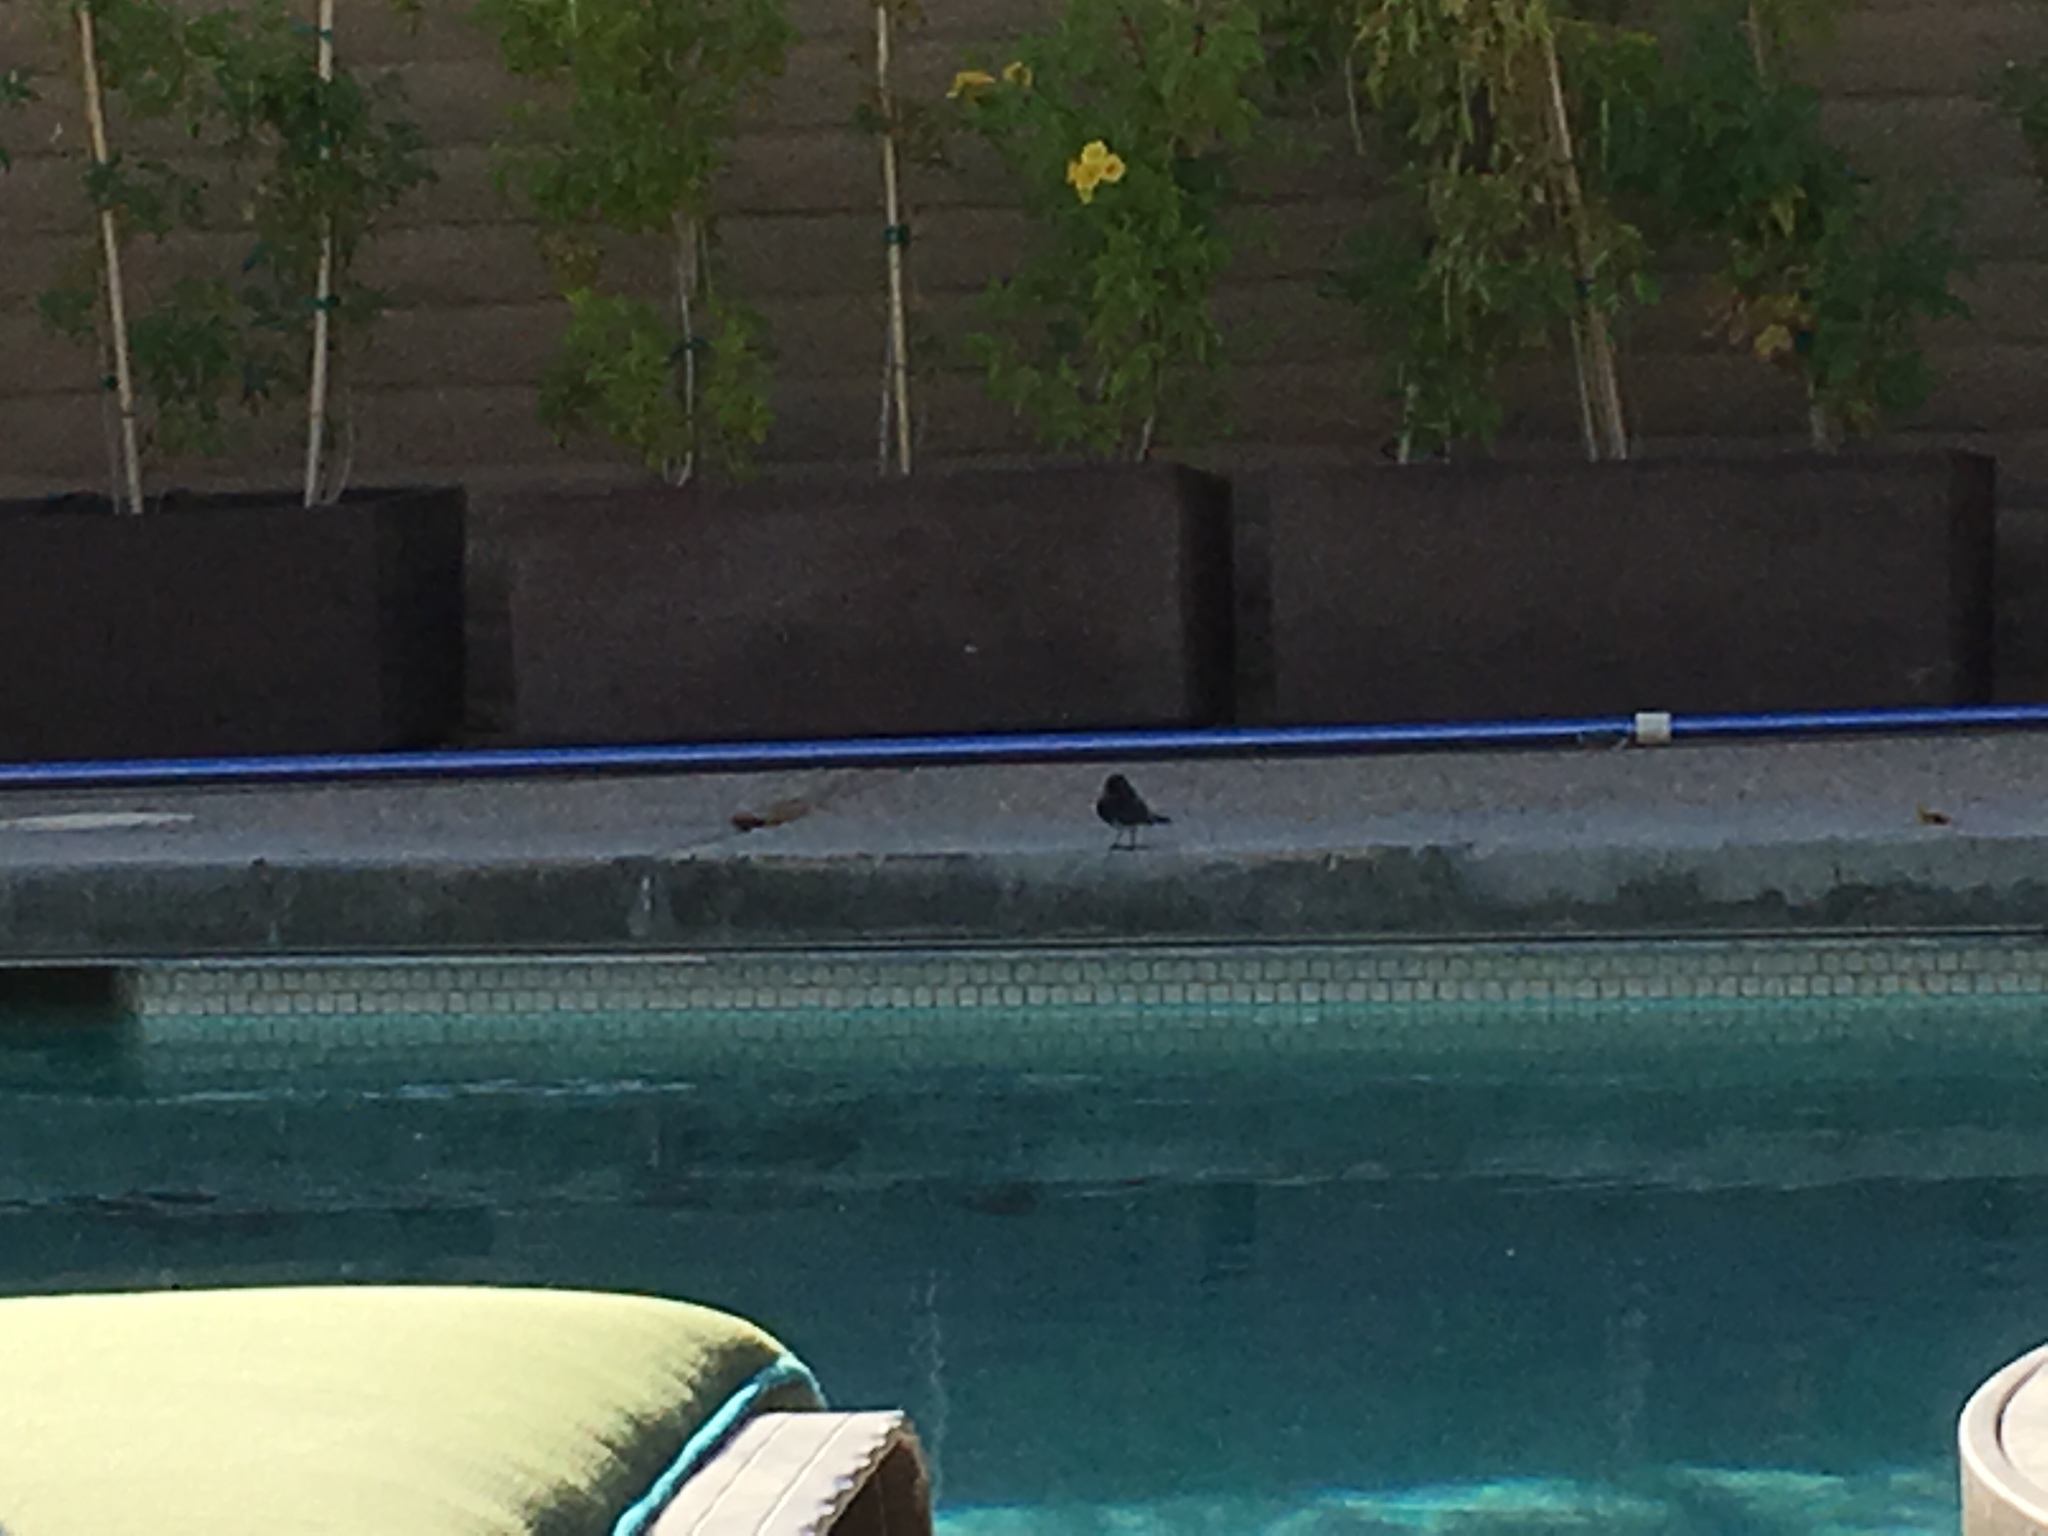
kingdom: Animalia
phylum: Chordata
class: Aves
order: Passeriformes
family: Tyrannidae
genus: Sayornis
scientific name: Sayornis nigricans
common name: Black phoebe
